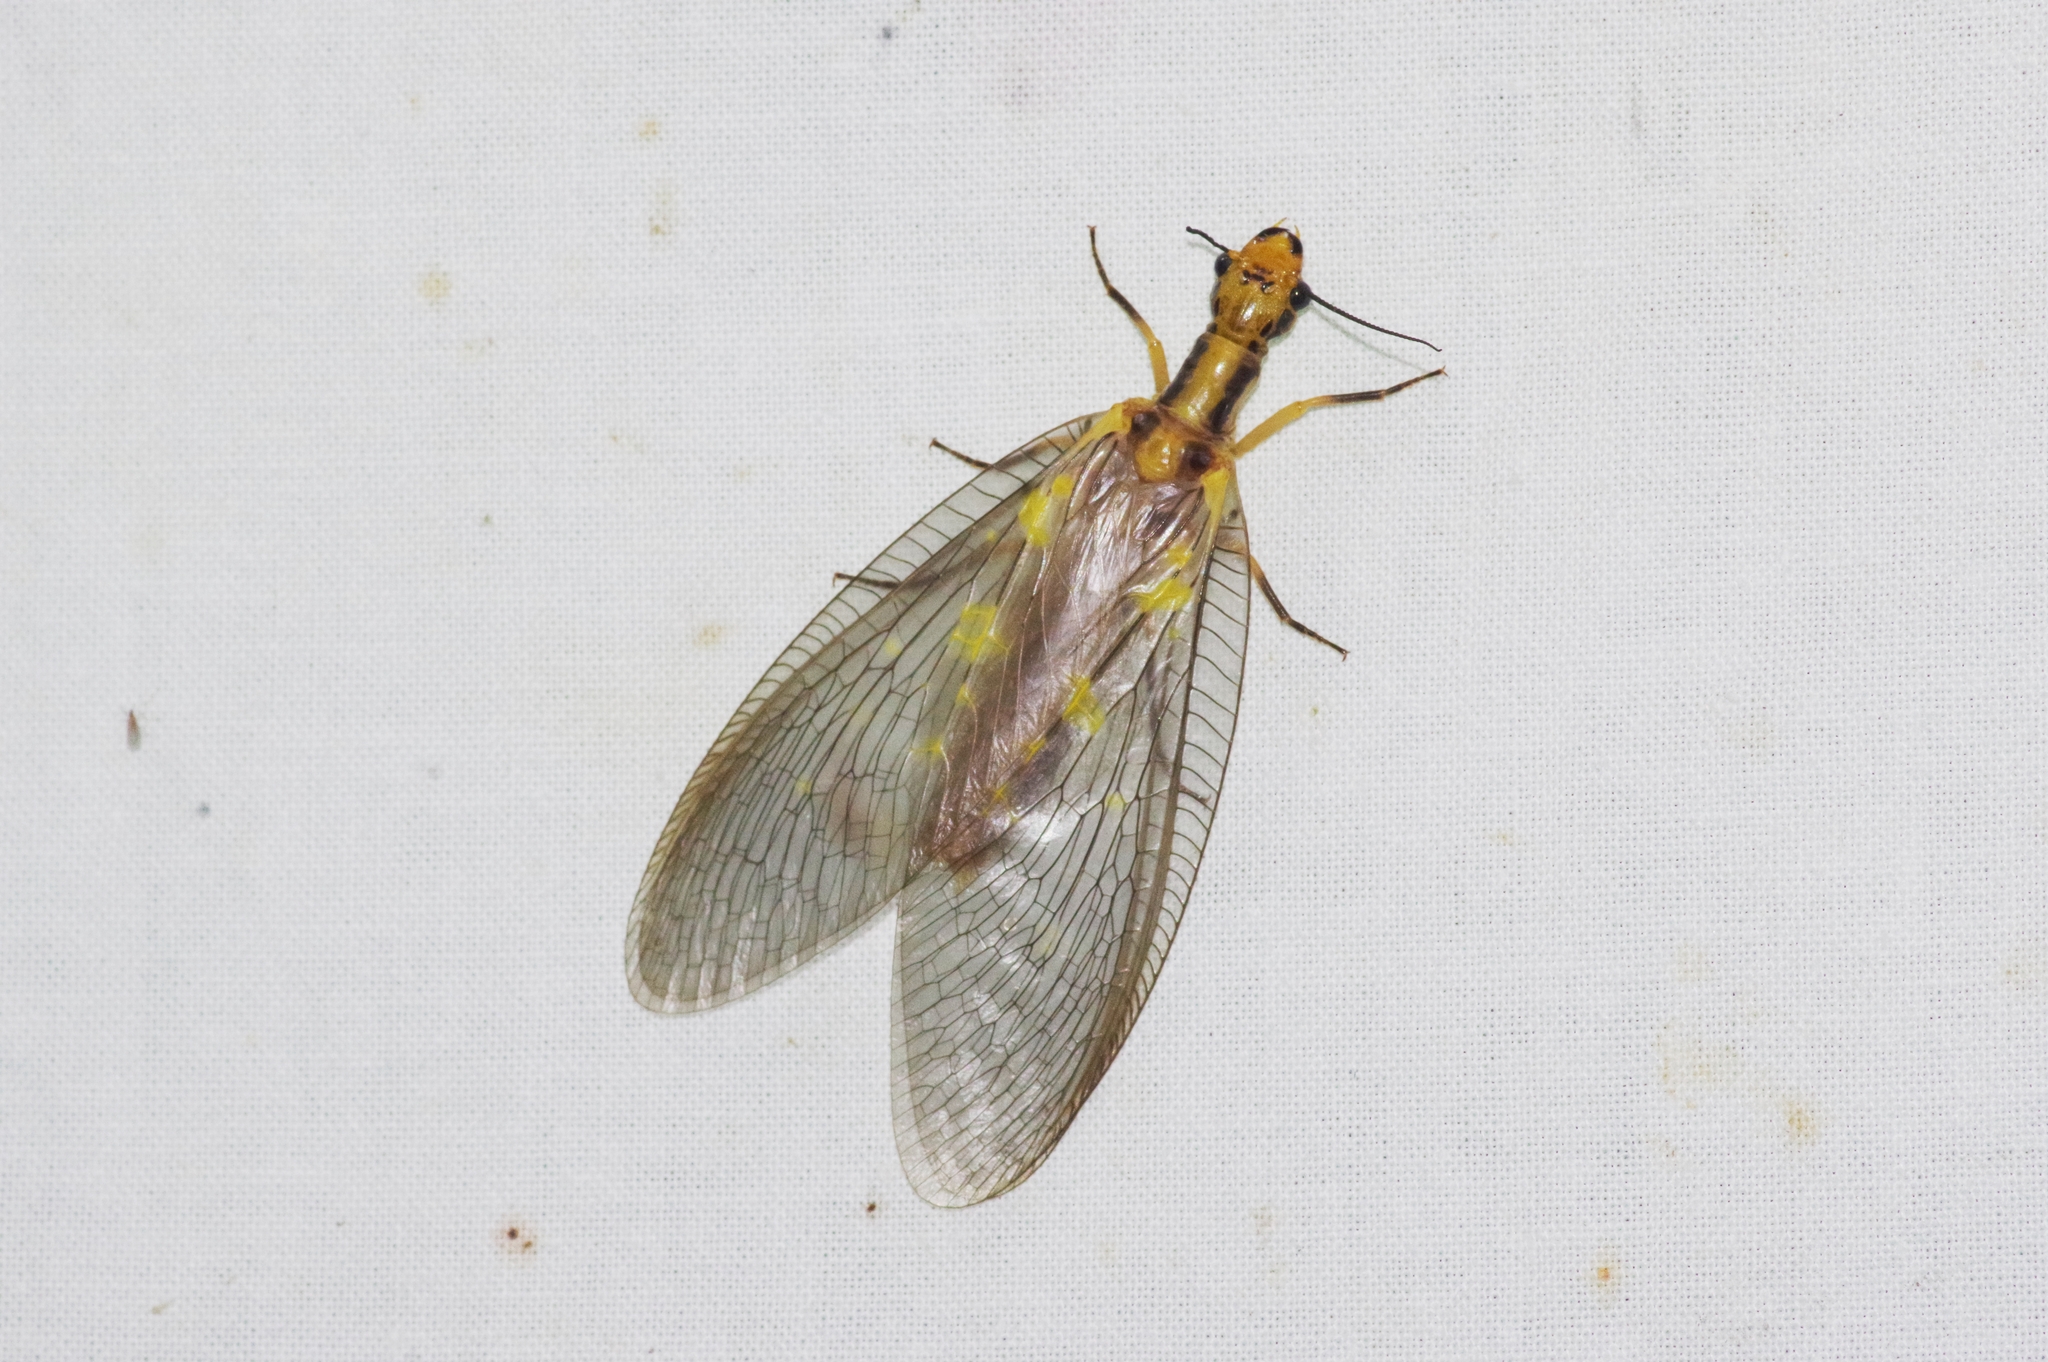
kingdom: Animalia
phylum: Arthropoda
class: Insecta
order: Megaloptera
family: Corydalidae
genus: Protohermes
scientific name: Protohermes grandis
